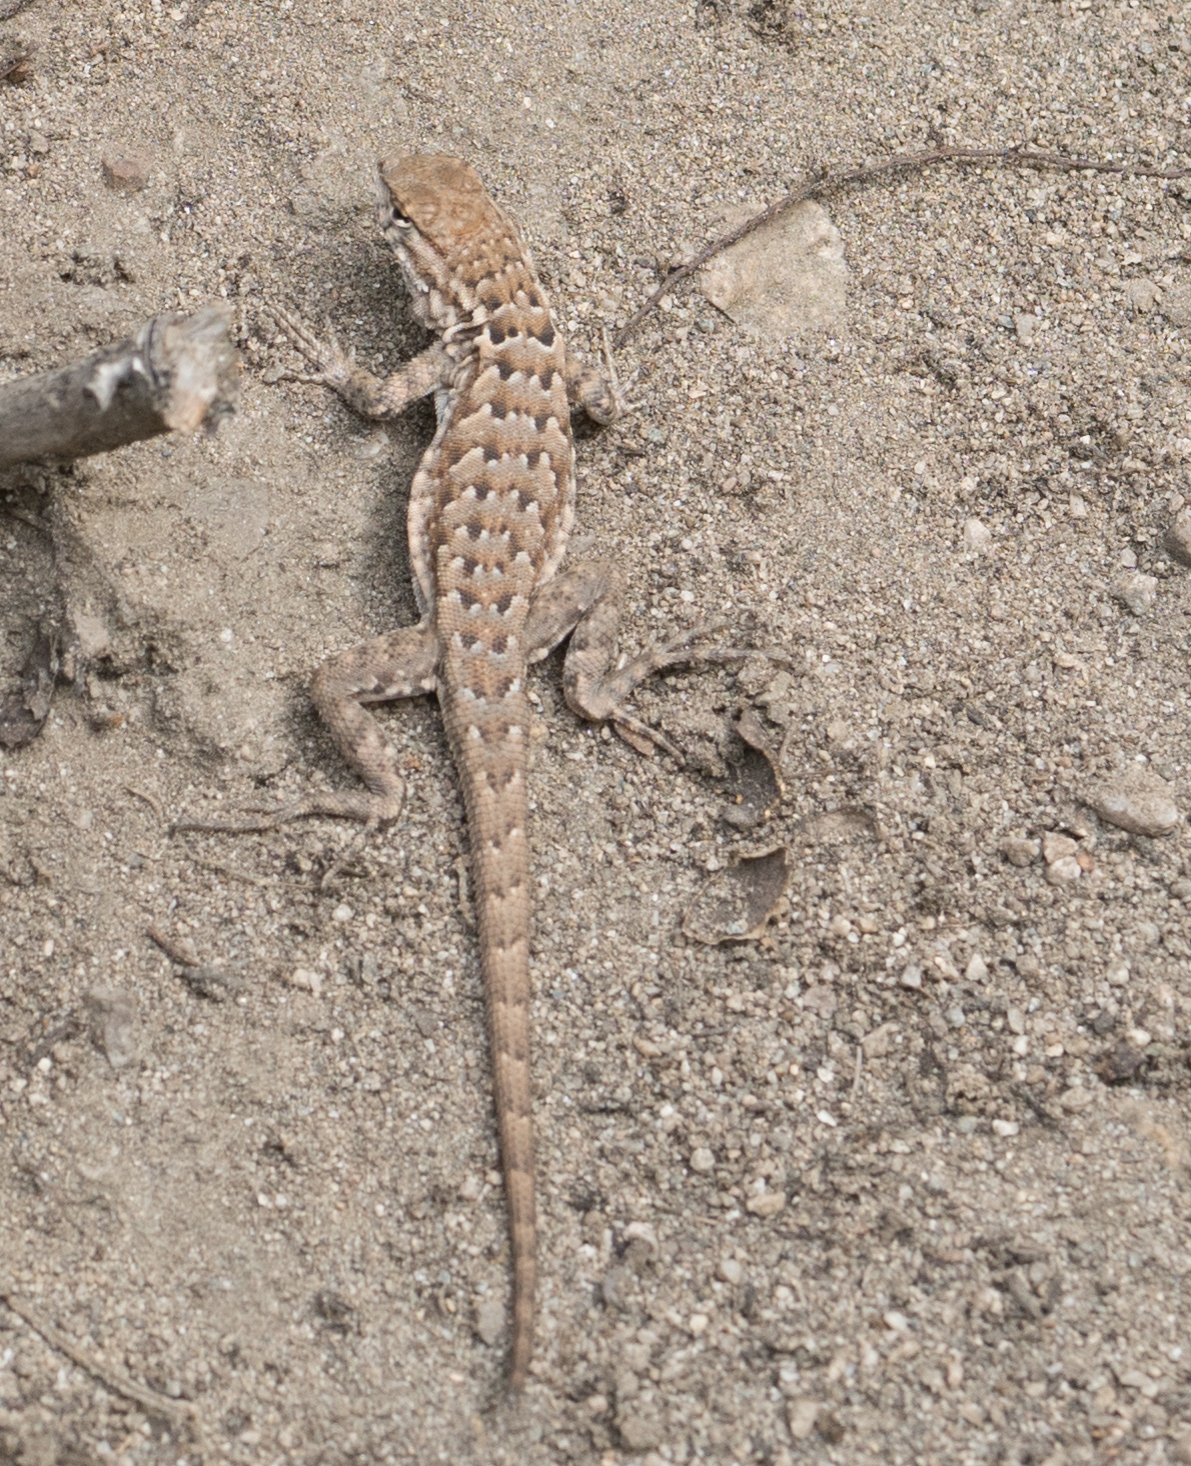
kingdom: Animalia
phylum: Chordata
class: Squamata
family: Phrynosomatidae
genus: Uta
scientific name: Uta stansburiana
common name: Side-blotched lizard
